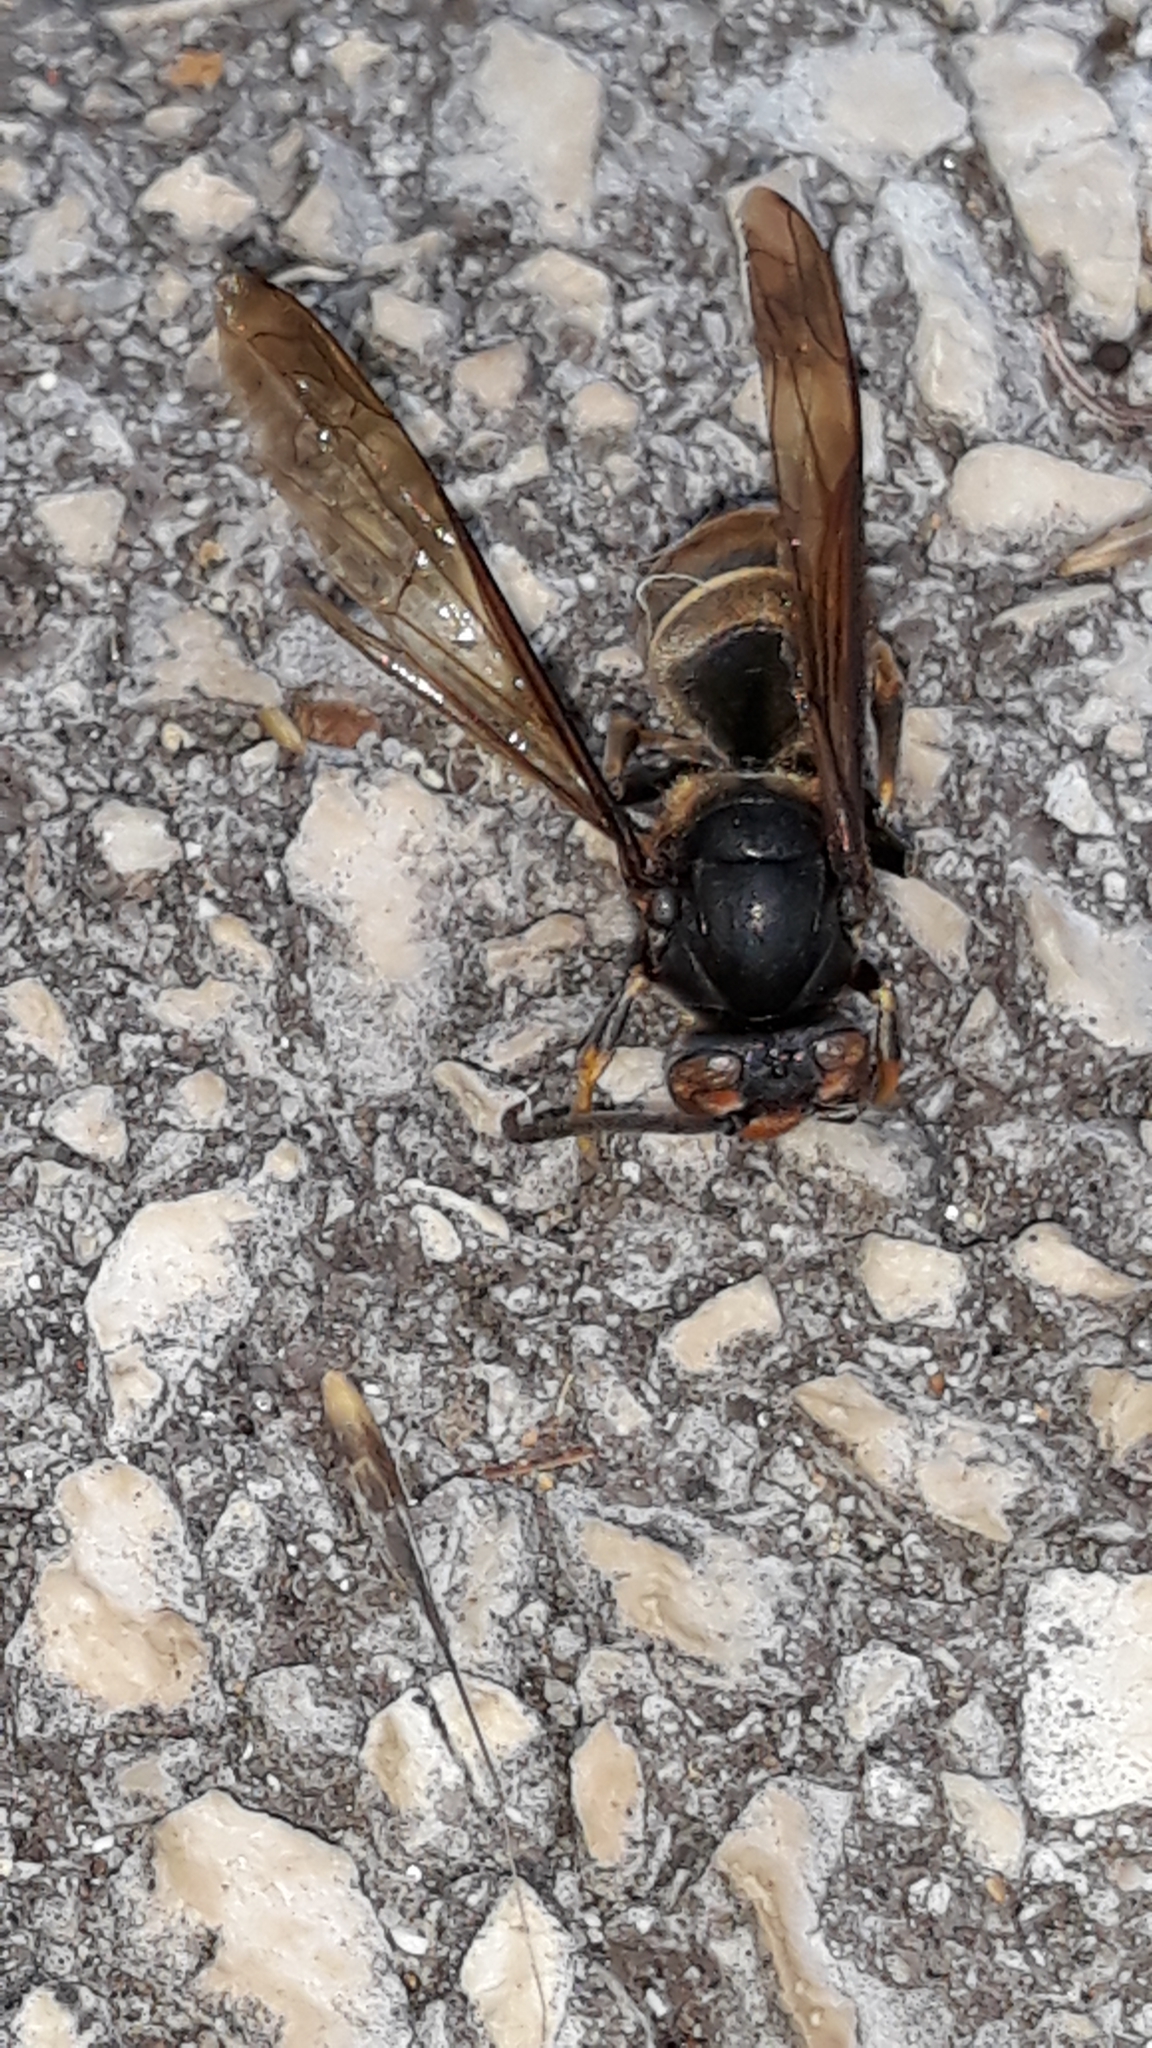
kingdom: Animalia
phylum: Arthropoda
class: Insecta
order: Hymenoptera
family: Vespidae
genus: Vespa
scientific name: Vespa velutina
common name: Asian hornet
